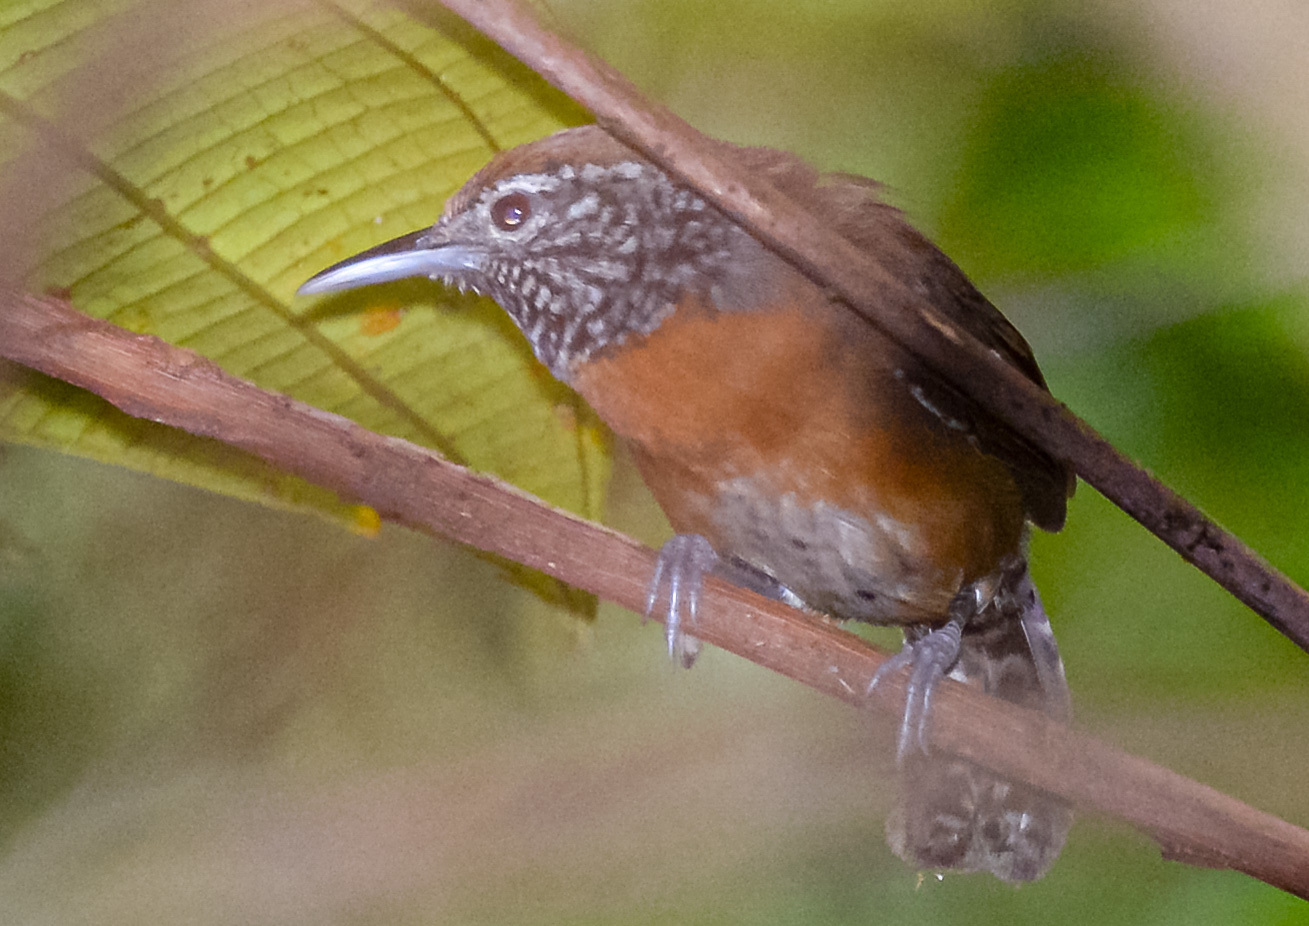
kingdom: Animalia
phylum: Chordata
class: Aves
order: Passeriformes
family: Troglodytidae
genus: Pheugopedius
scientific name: Pheugopedius rutilus
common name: Rufous-breasted wren
